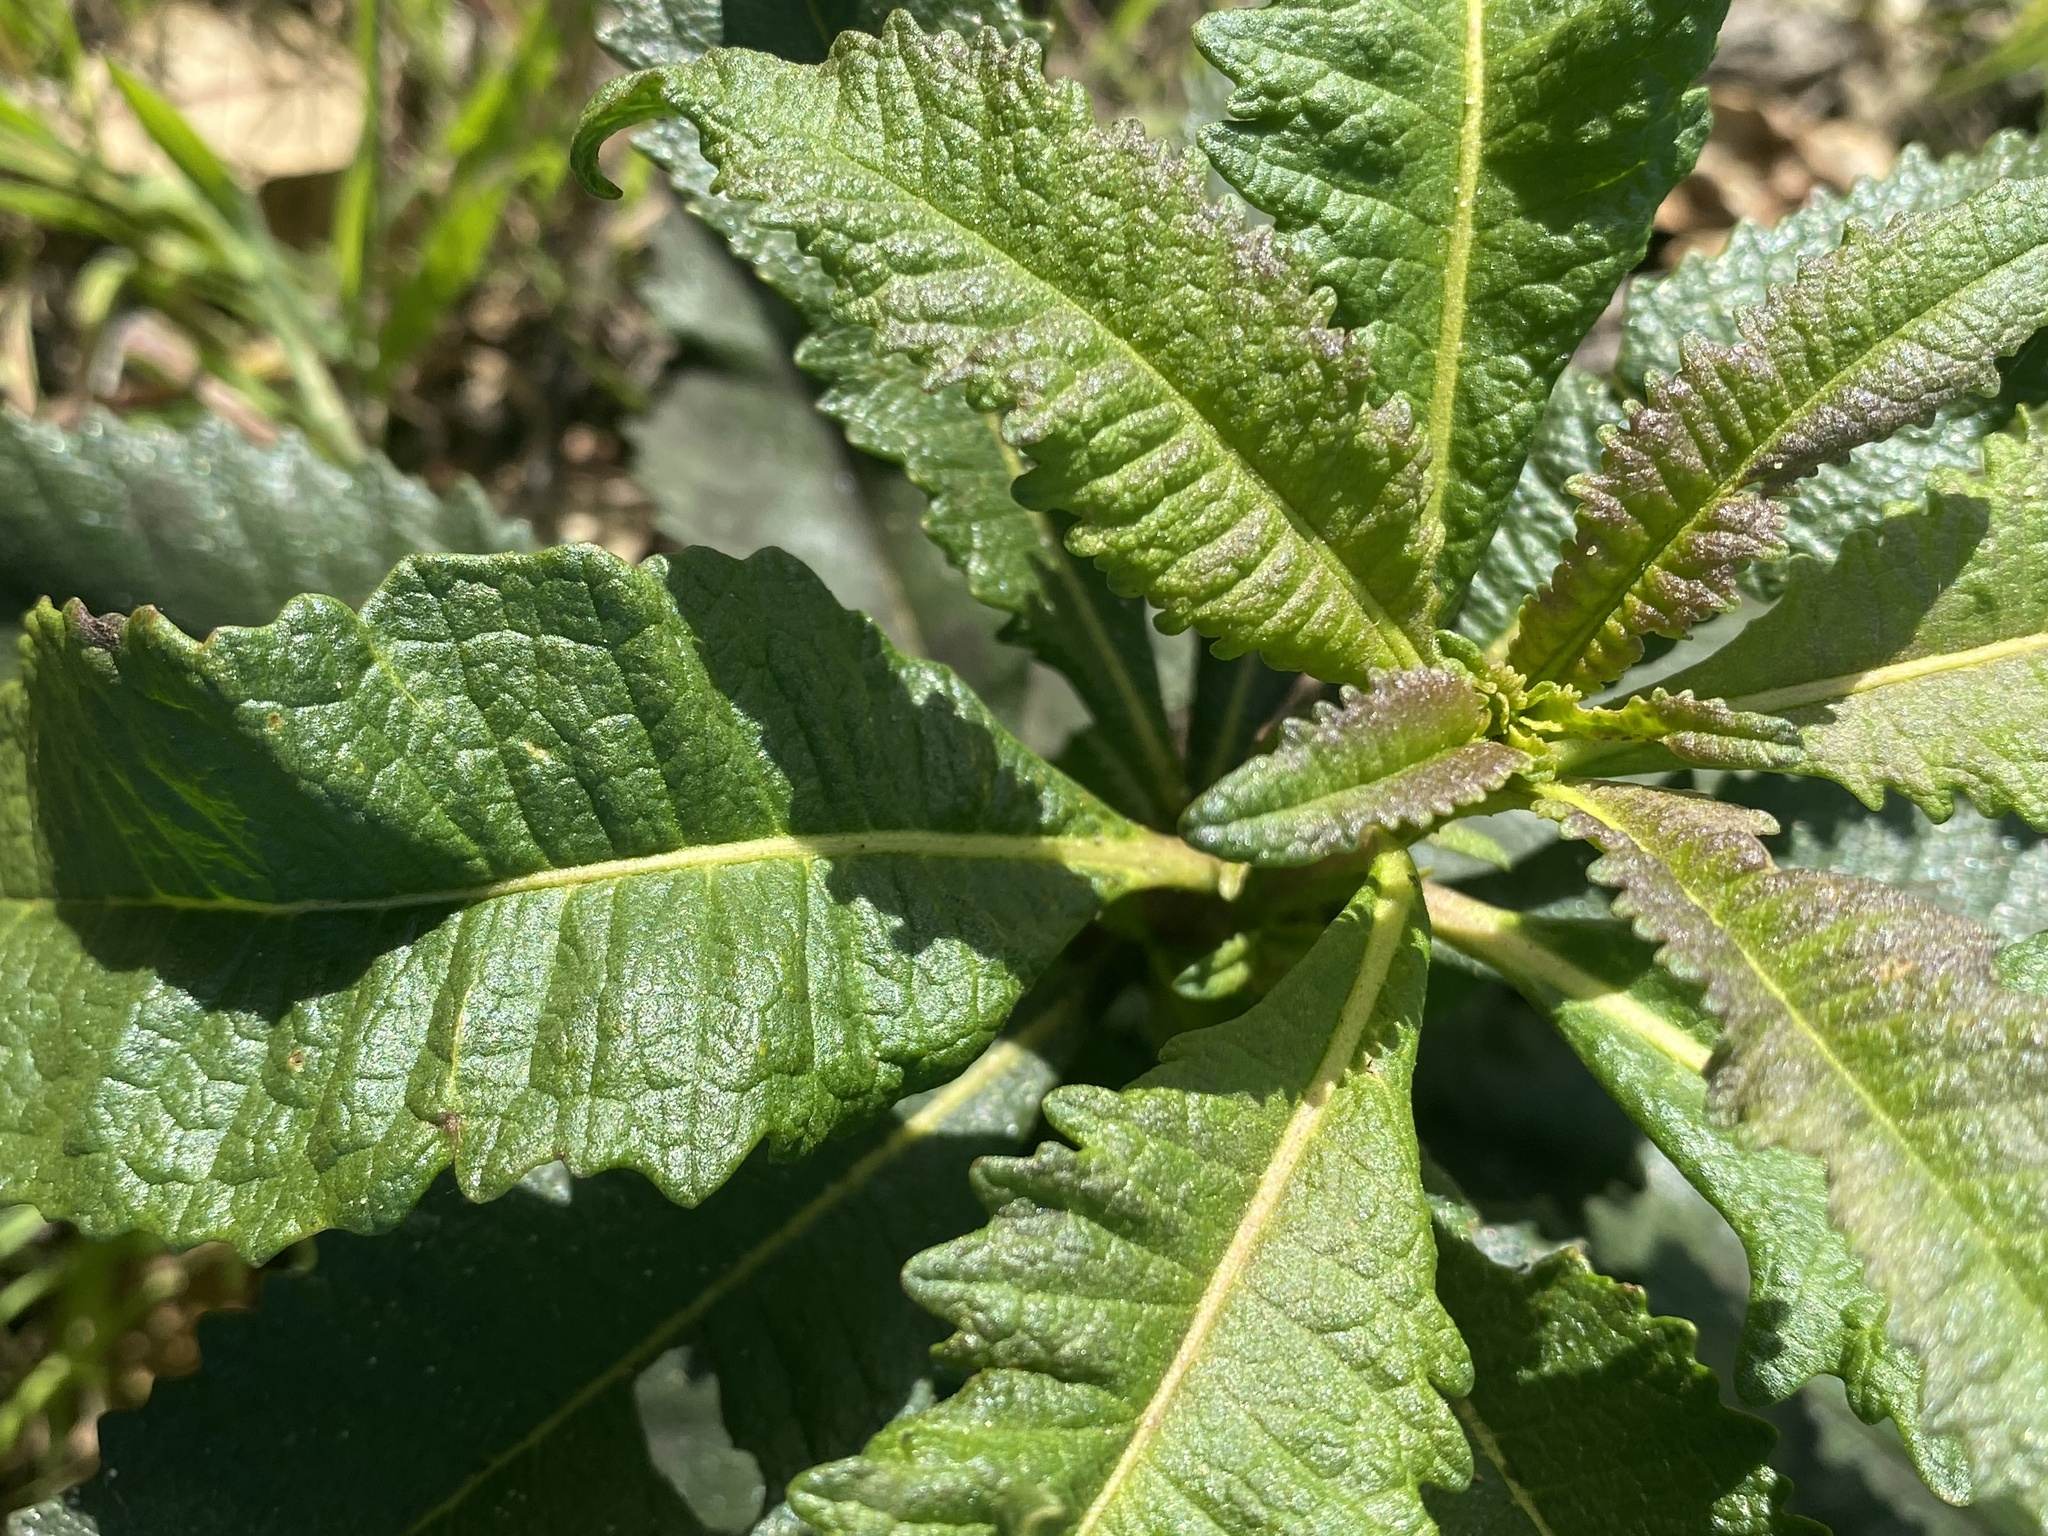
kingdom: Plantae
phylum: Tracheophyta
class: Magnoliopsida
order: Boraginales
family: Namaceae
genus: Eriodictyon
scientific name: Eriodictyon californicum
